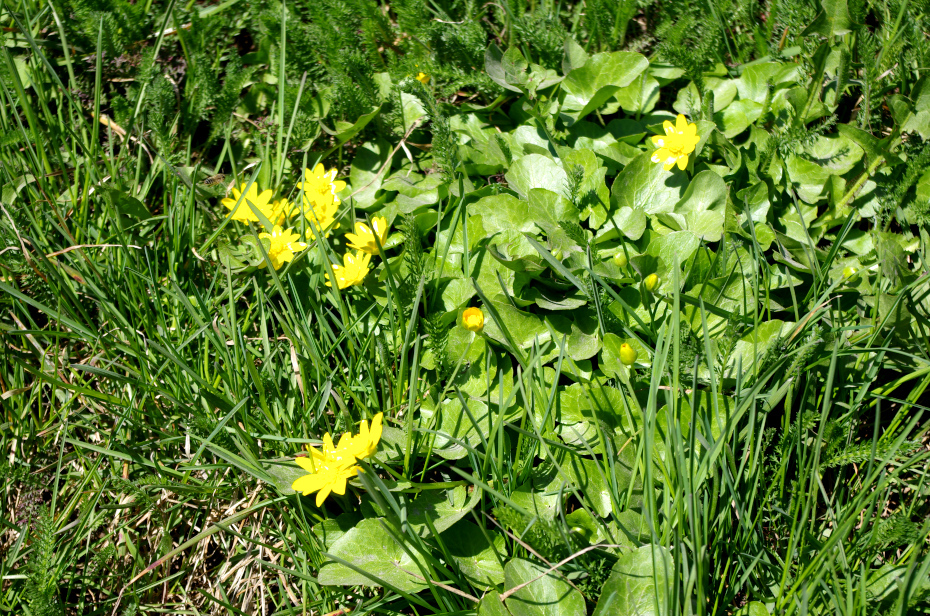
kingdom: Plantae
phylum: Tracheophyta
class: Magnoliopsida
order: Ranunculales
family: Ranunculaceae
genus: Ficaria
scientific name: Ficaria verna
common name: Lesser celandine
